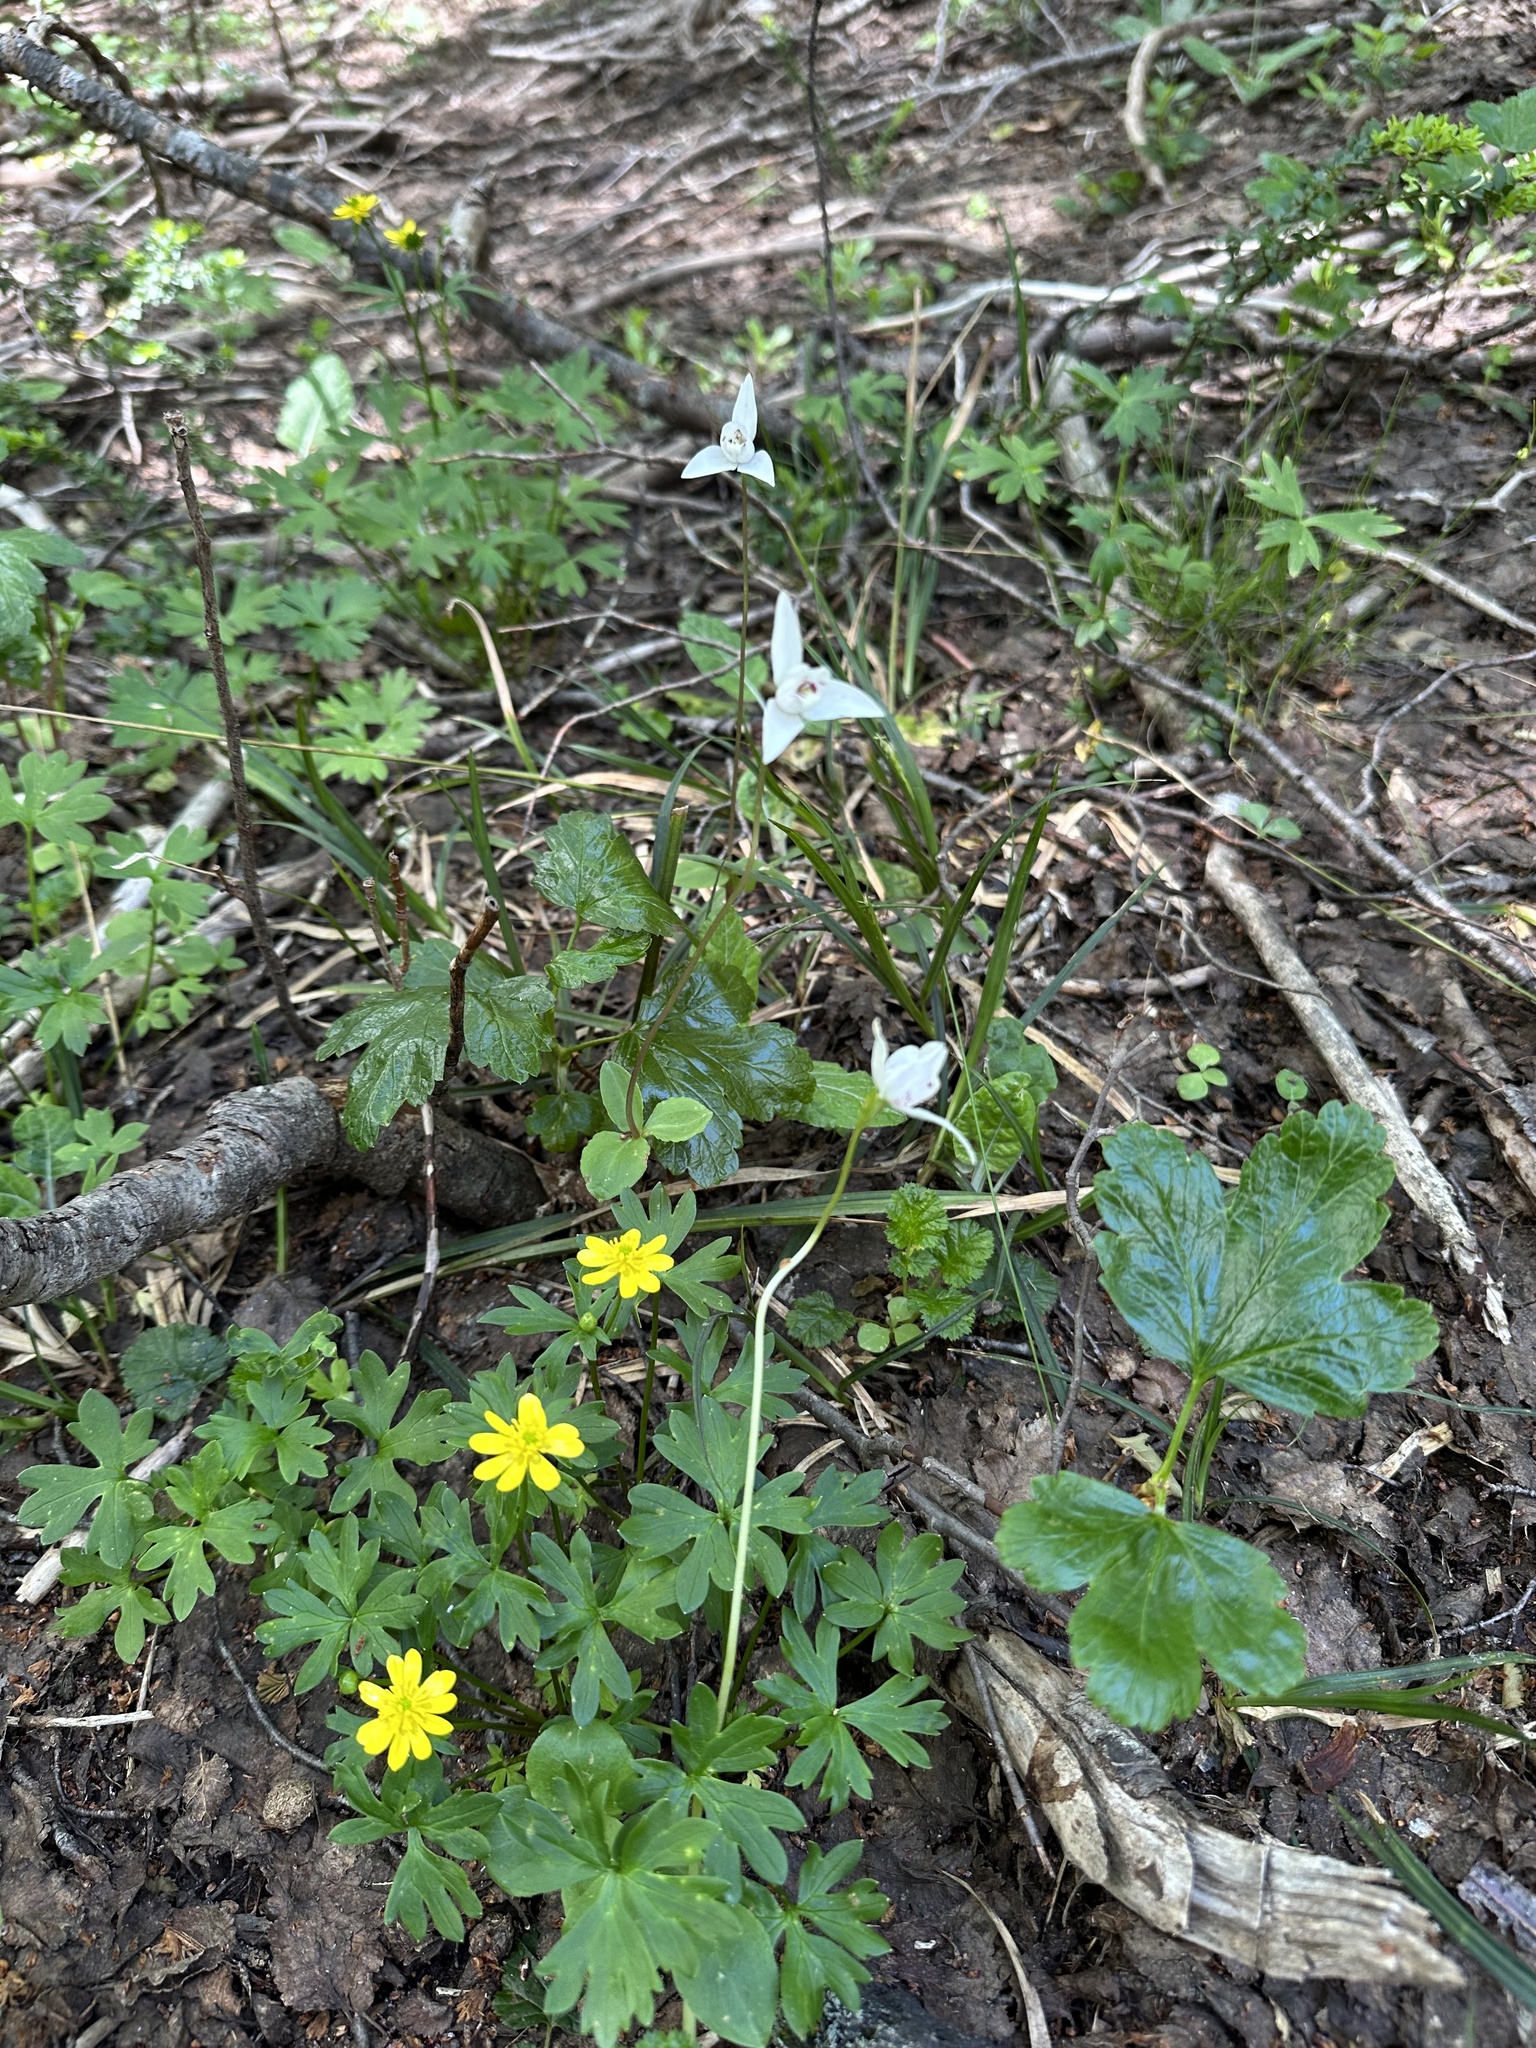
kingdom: Plantae
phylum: Tracheophyta
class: Liliopsida
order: Asparagales
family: Orchidaceae
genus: Codonorchis
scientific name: Codonorchis lessonii
